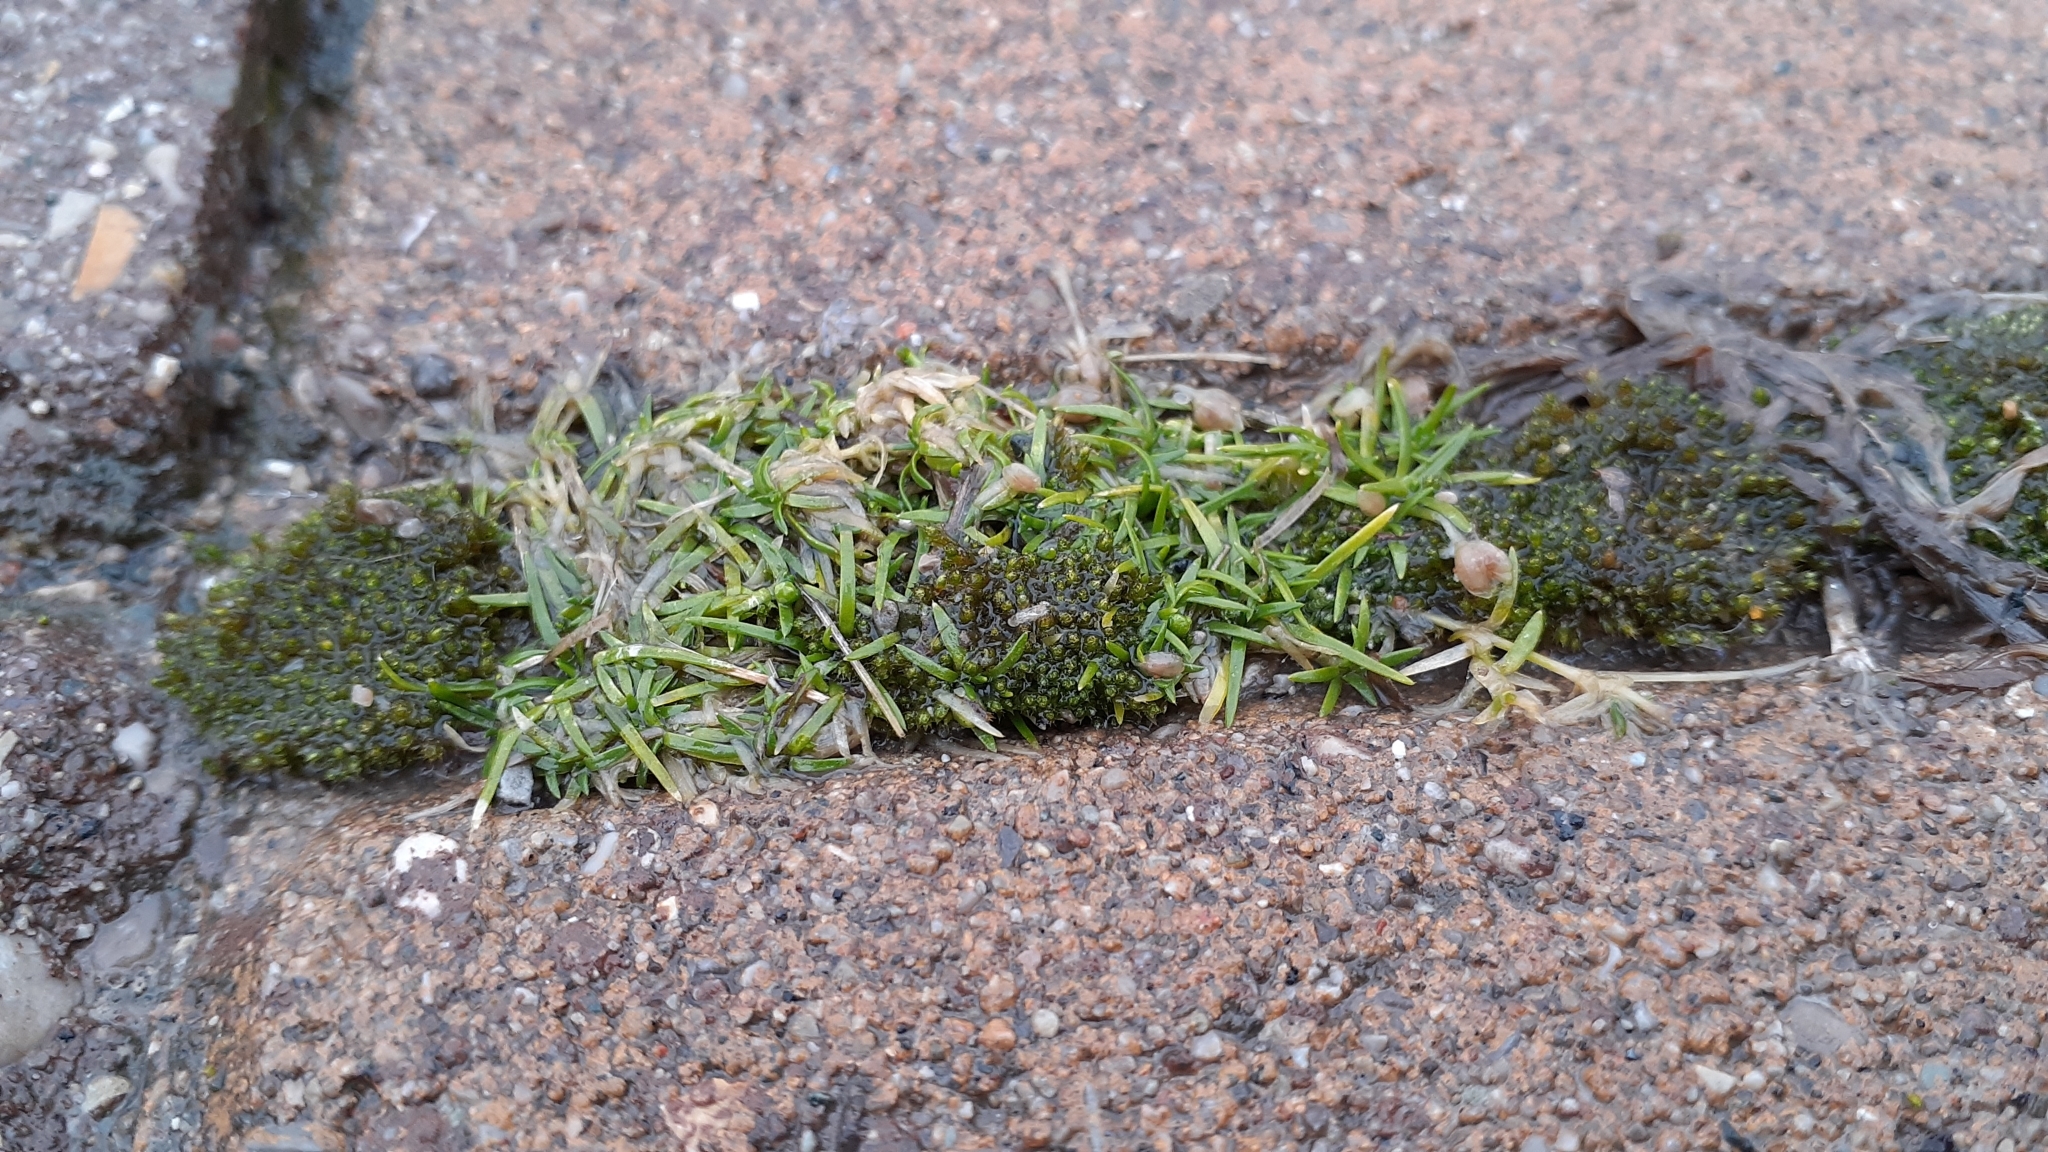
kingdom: Plantae
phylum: Tracheophyta
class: Magnoliopsida
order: Caryophyllales
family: Caryophyllaceae
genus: Sagina
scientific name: Sagina procumbens
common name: Procumbent pearlwort
